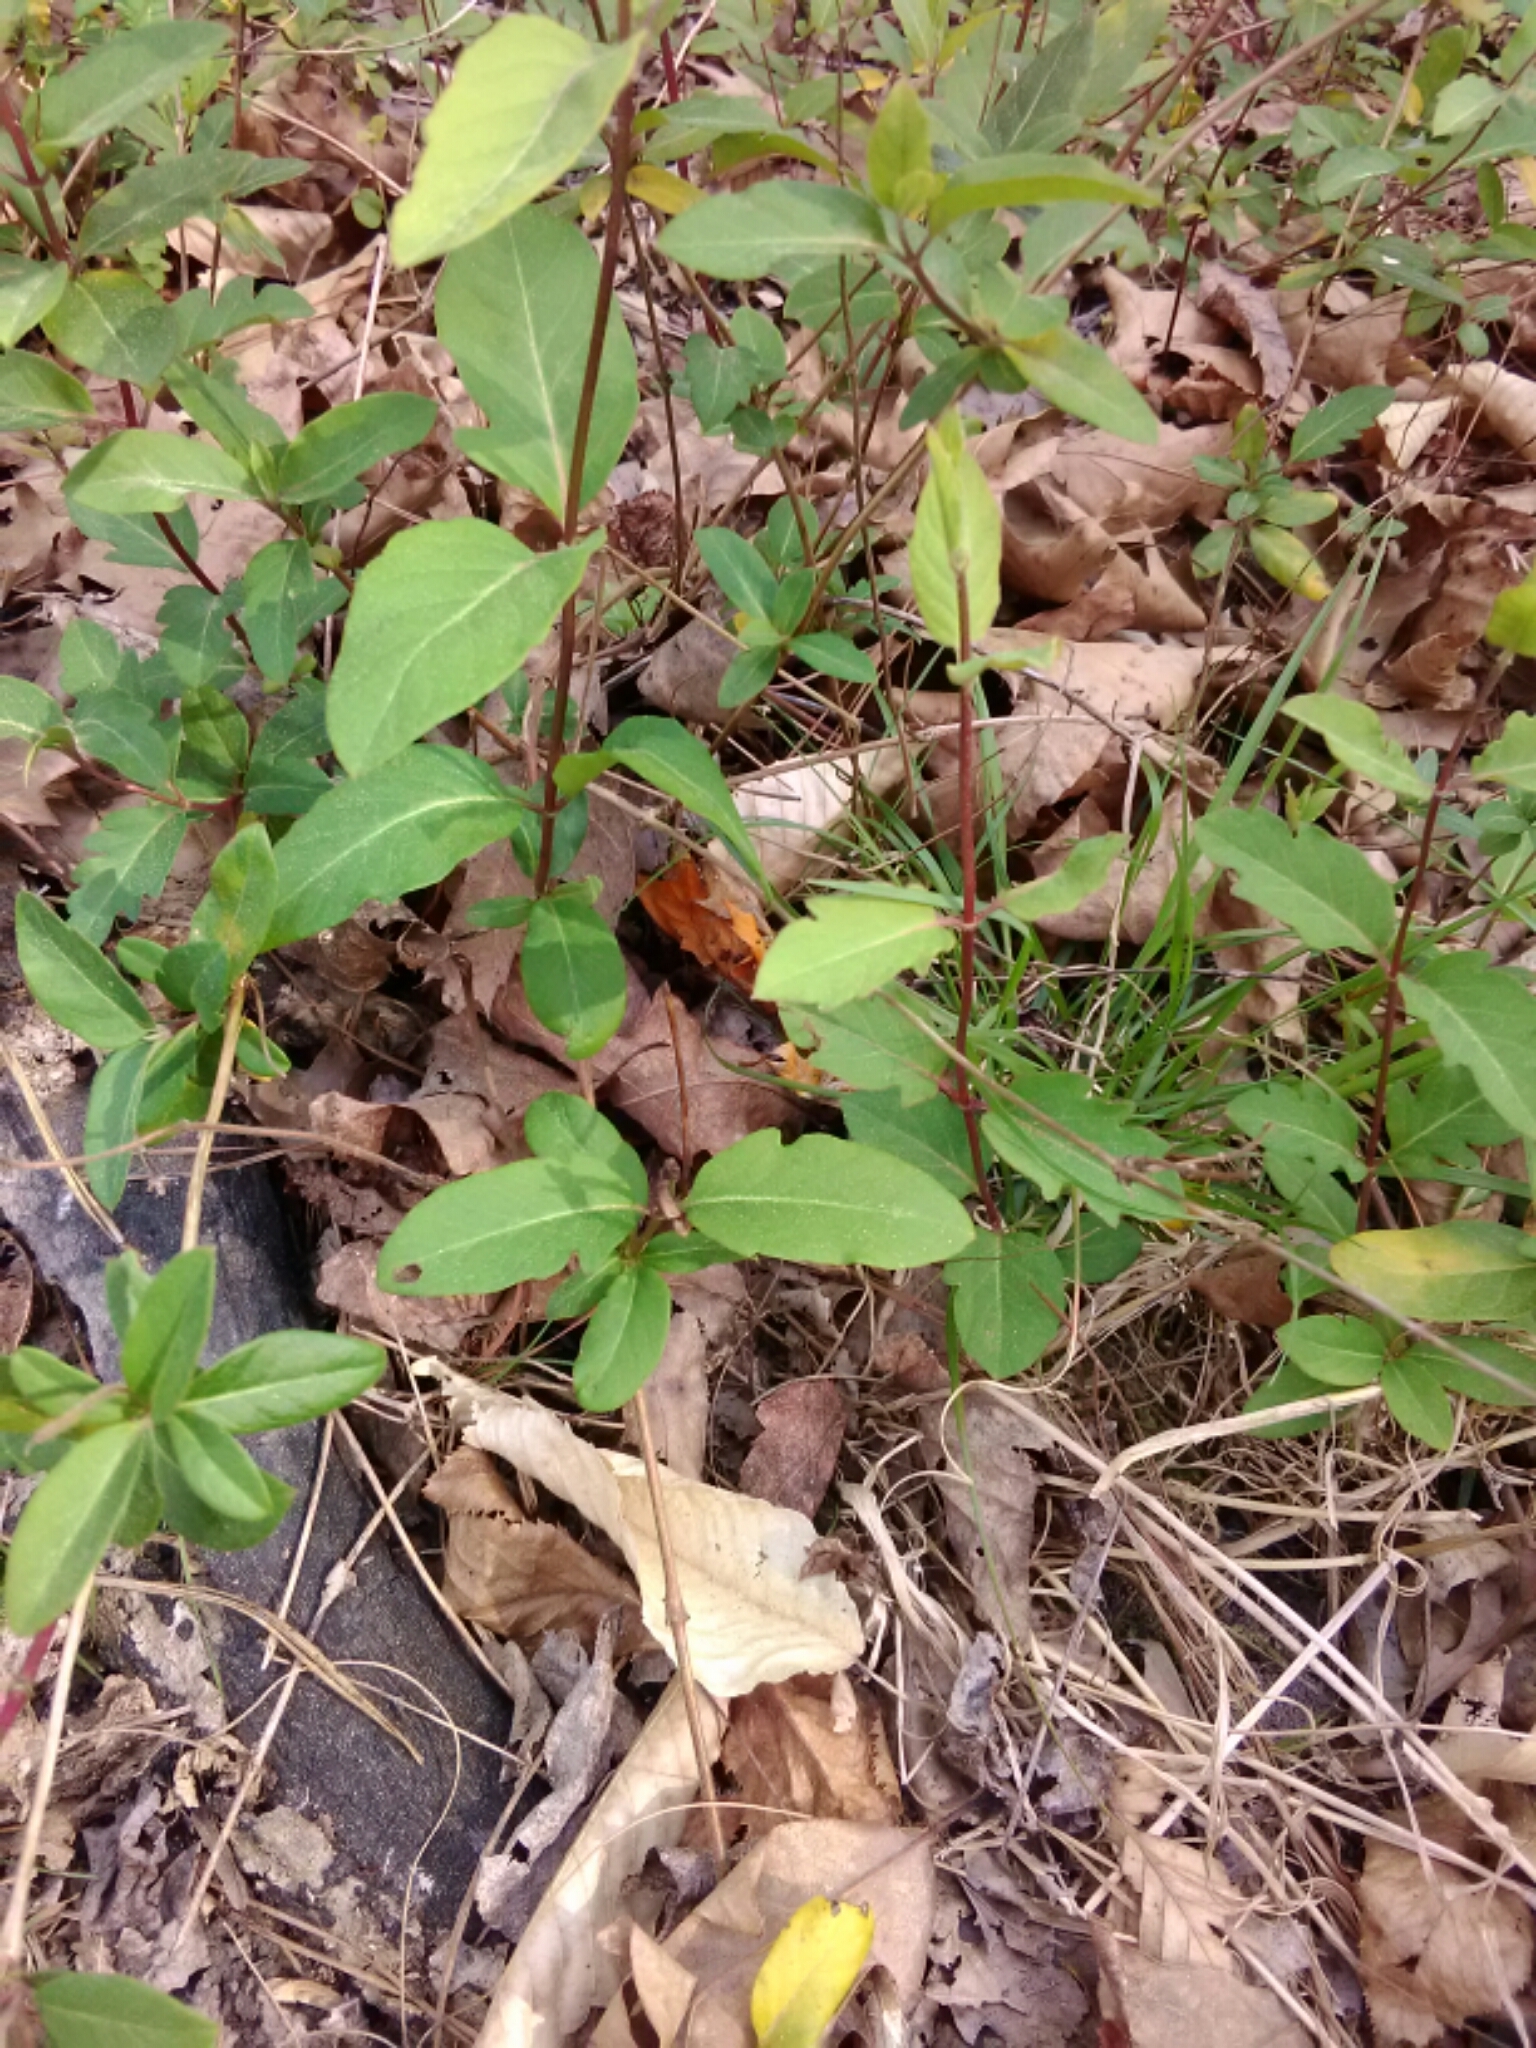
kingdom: Plantae
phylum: Tracheophyta
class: Magnoliopsida
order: Dipsacales
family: Caprifoliaceae
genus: Lonicera
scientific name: Lonicera japonica
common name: Japanese honeysuckle
